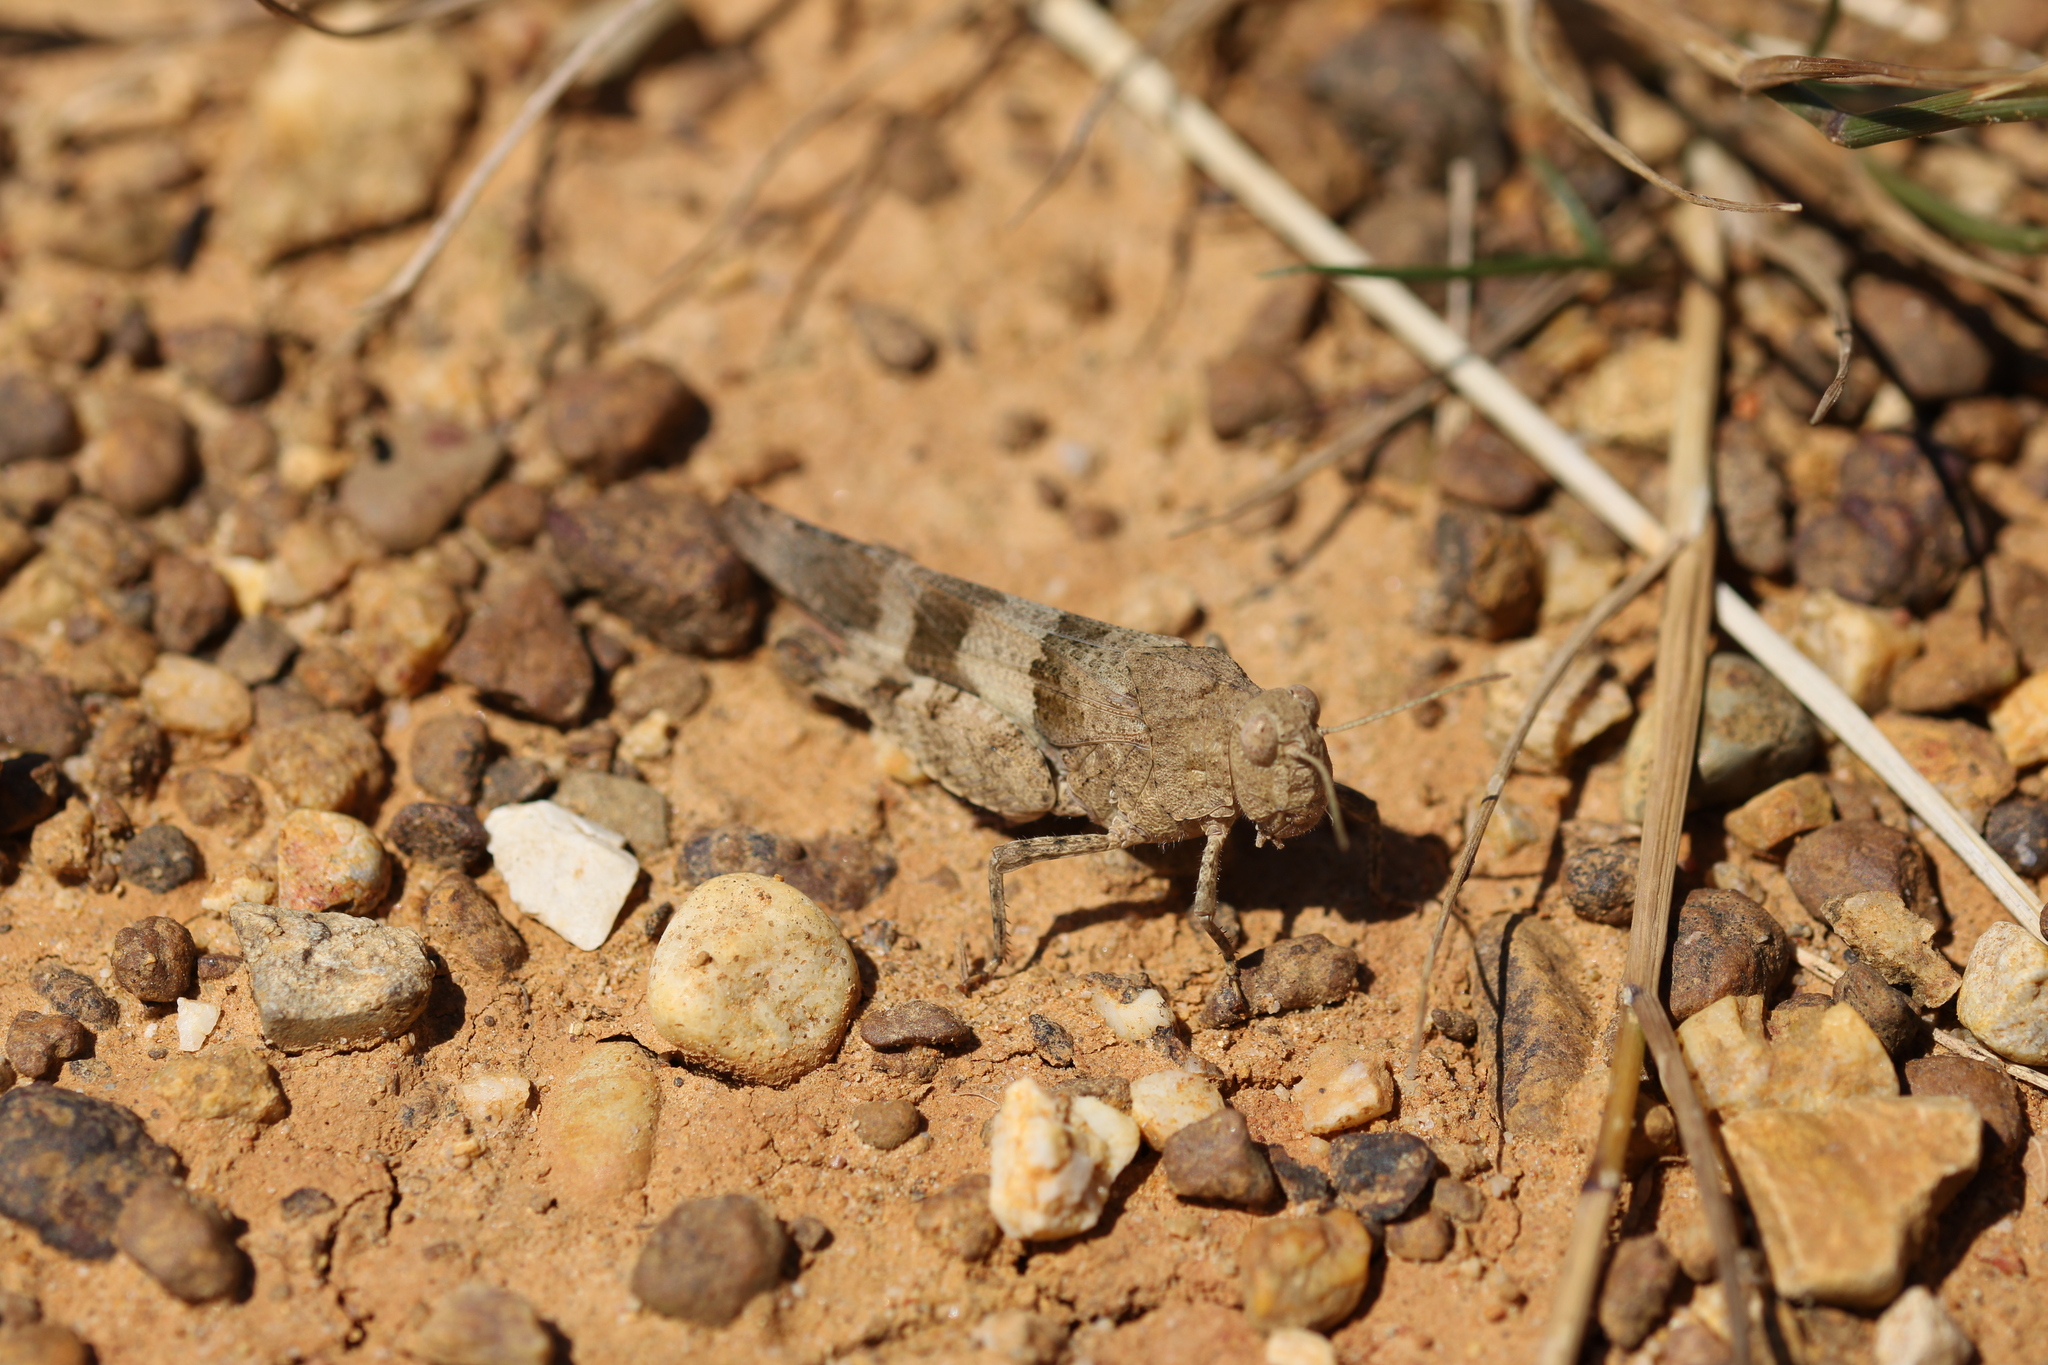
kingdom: Animalia
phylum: Arthropoda
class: Insecta
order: Orthoptera
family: Acrididae
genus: Oedipoda
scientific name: Oedipoda caerulescens
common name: Blue-winged grasshopper
